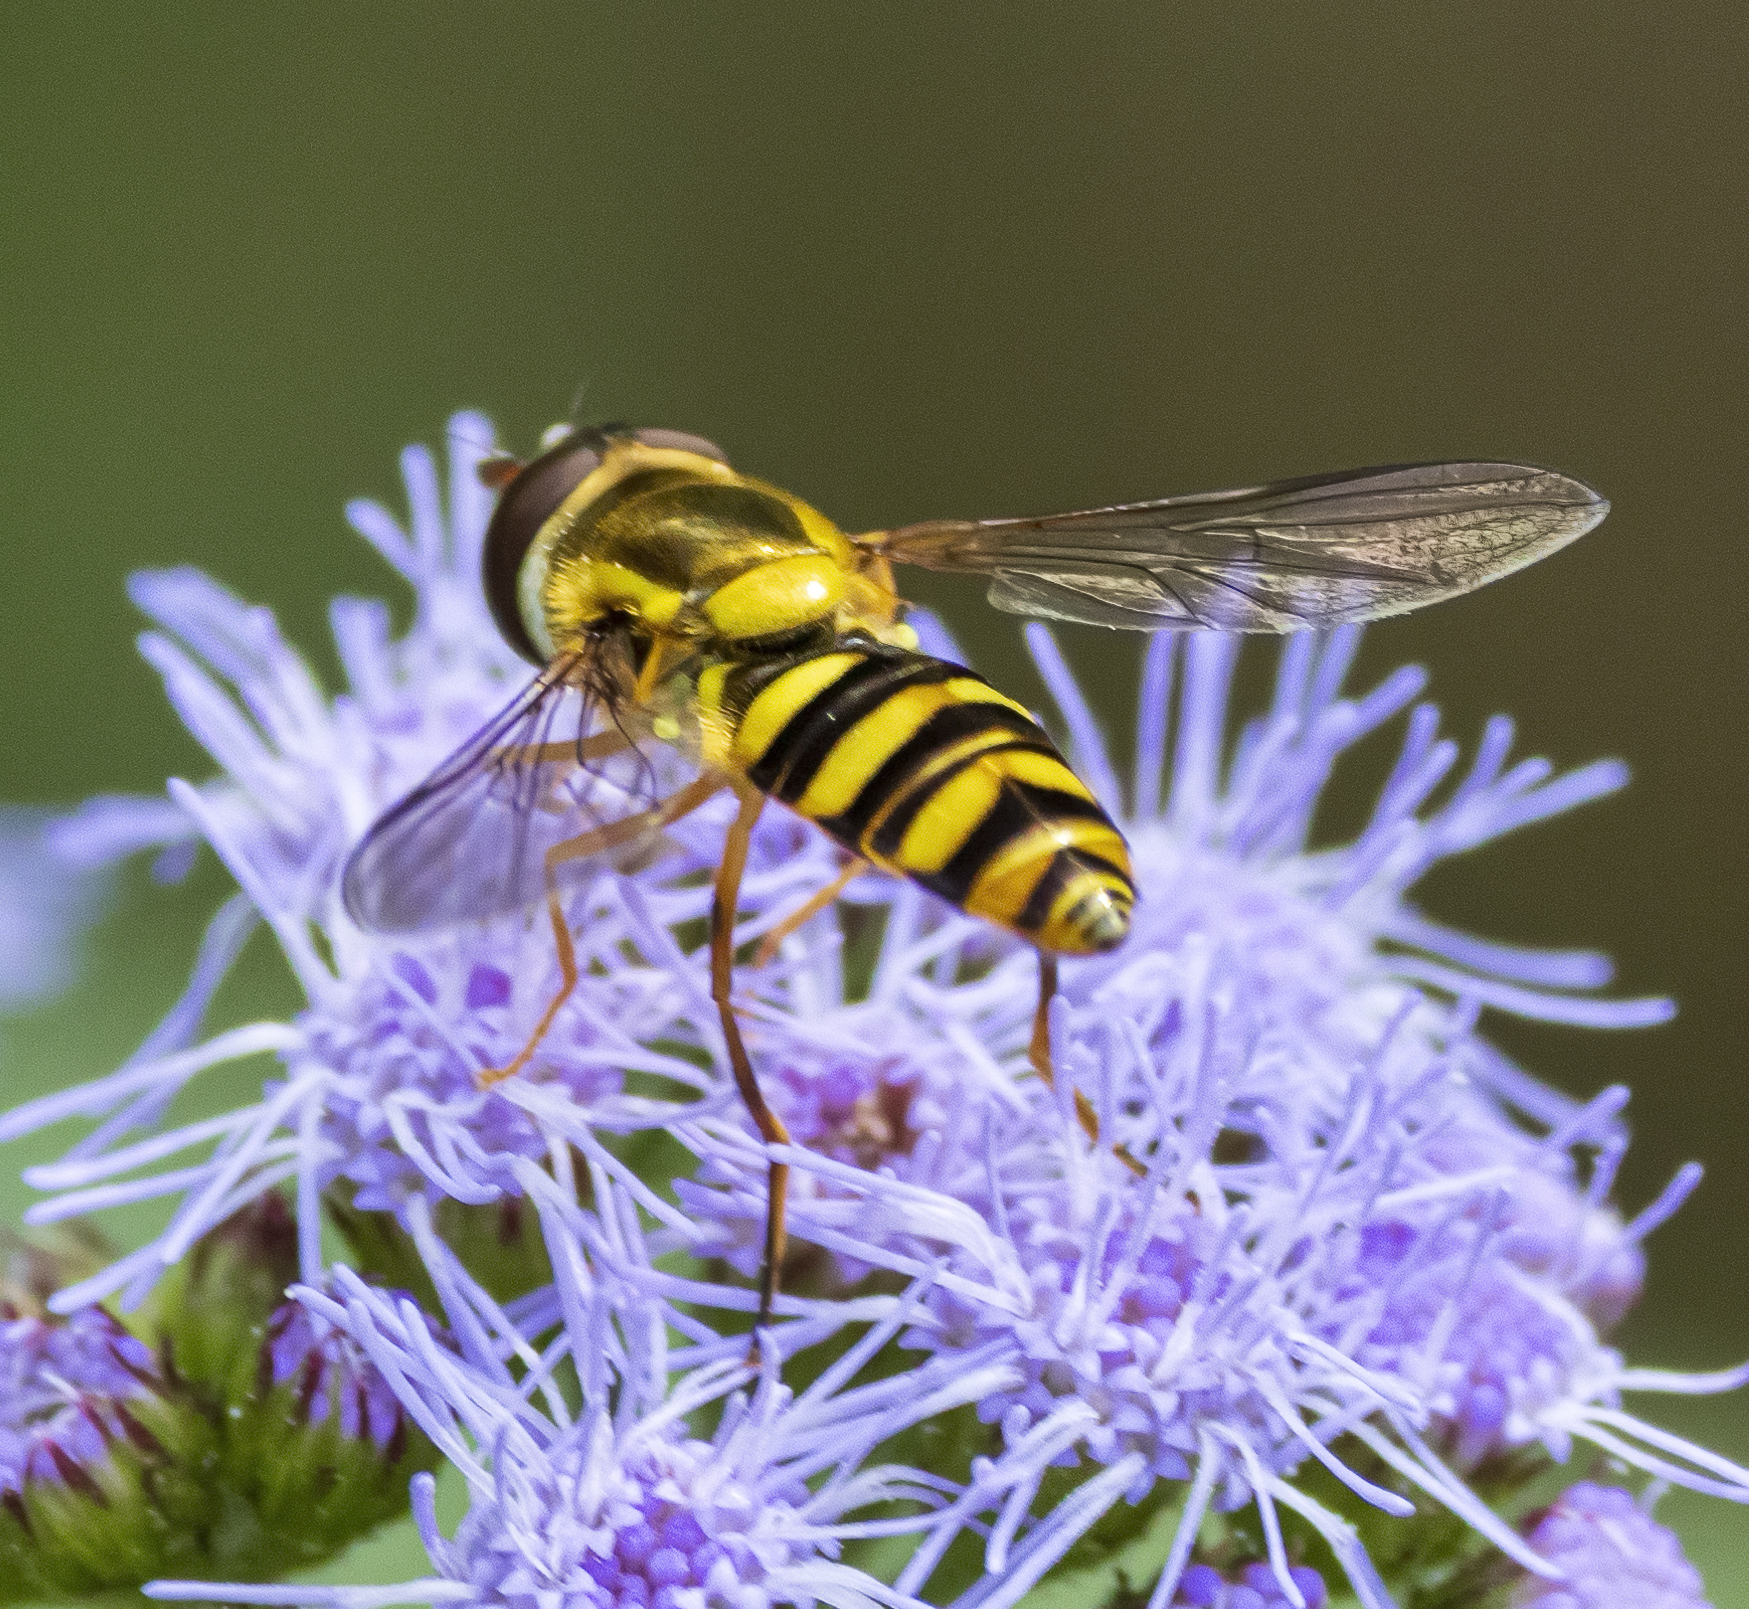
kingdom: Animalia
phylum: Arthropoda
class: Insecta
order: Diptera
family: Syrphidae
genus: Epistrophella
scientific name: Epistrophella emarginata
